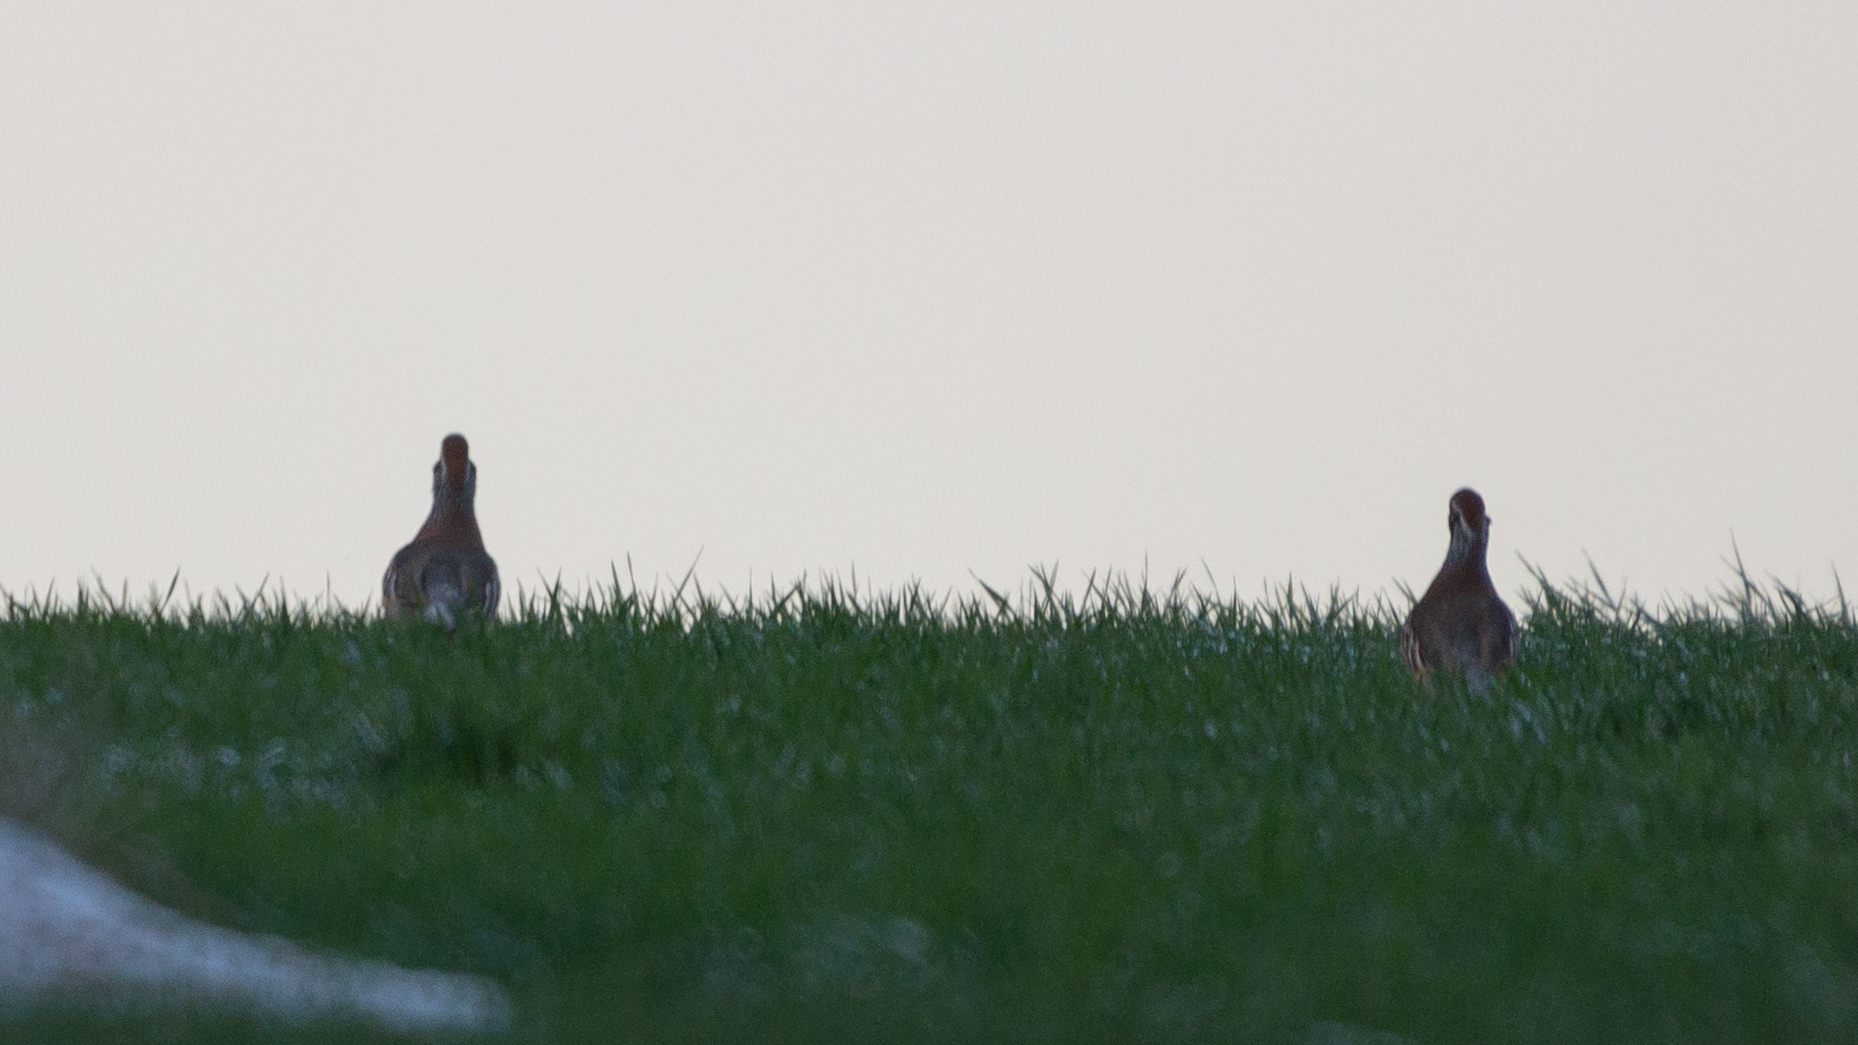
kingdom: Animalia
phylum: Chordata
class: Aves
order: Galliformes
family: Phasianidae
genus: Alectoris
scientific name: Alectoris rufa
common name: Red-legged partridge
